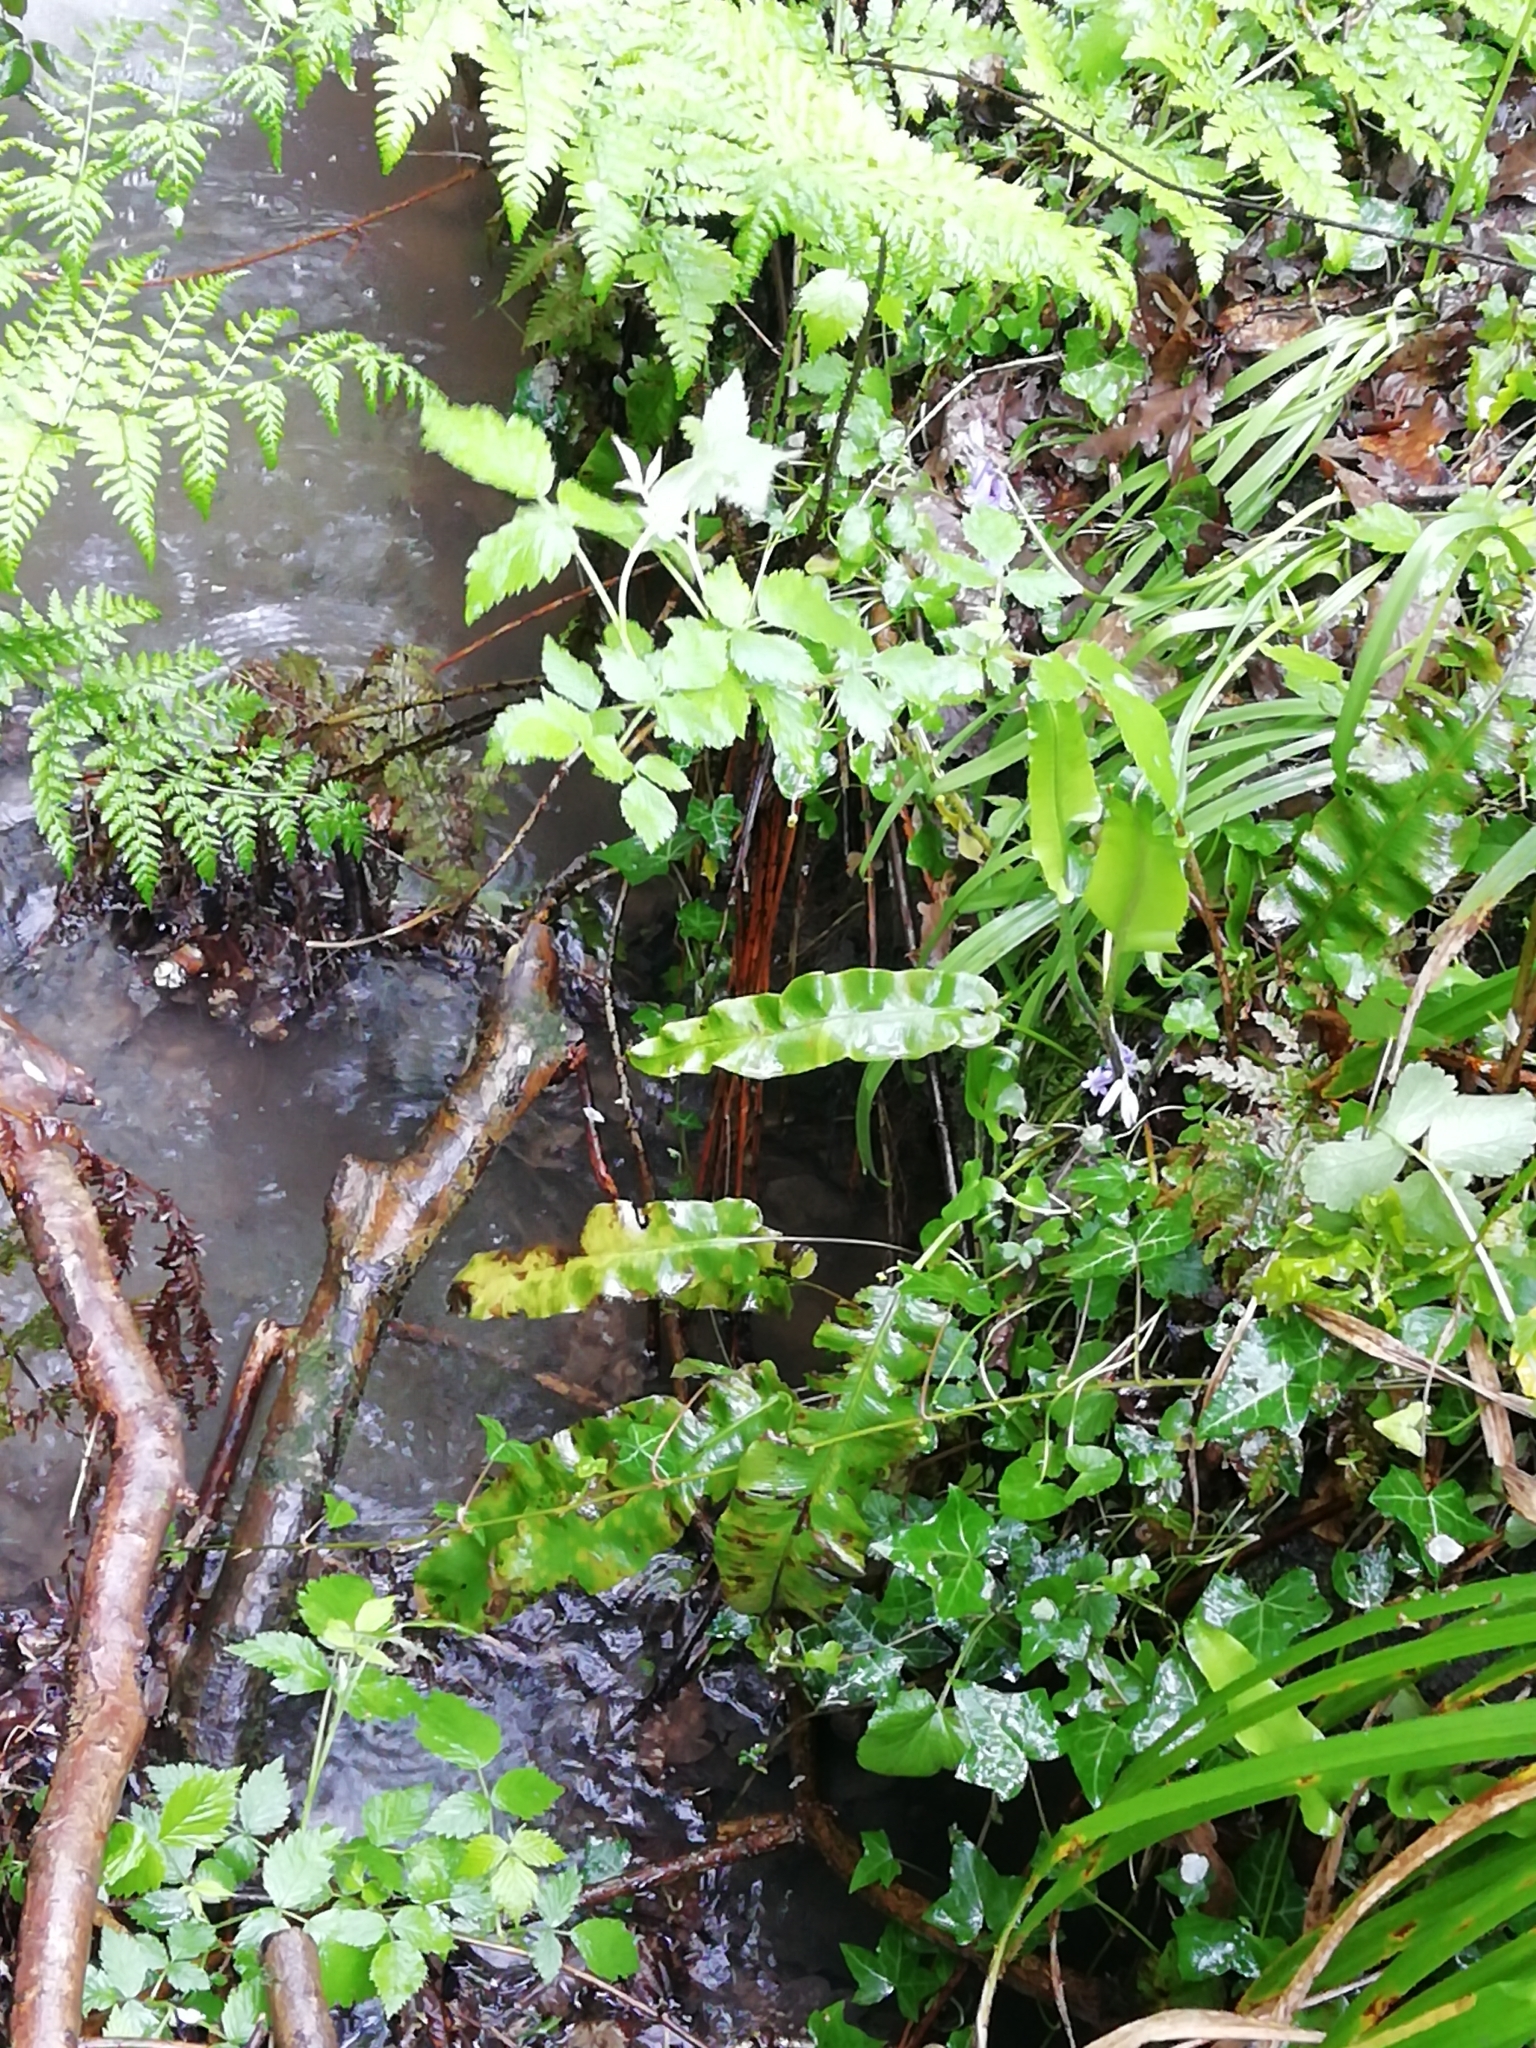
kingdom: Plantae
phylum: Tracheophyta
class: Polypodiopsida
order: Polypodiales
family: Aspleniaceae
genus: Asplenium
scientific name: Asplenium scolopendrium
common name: Hart's-tongue fern
